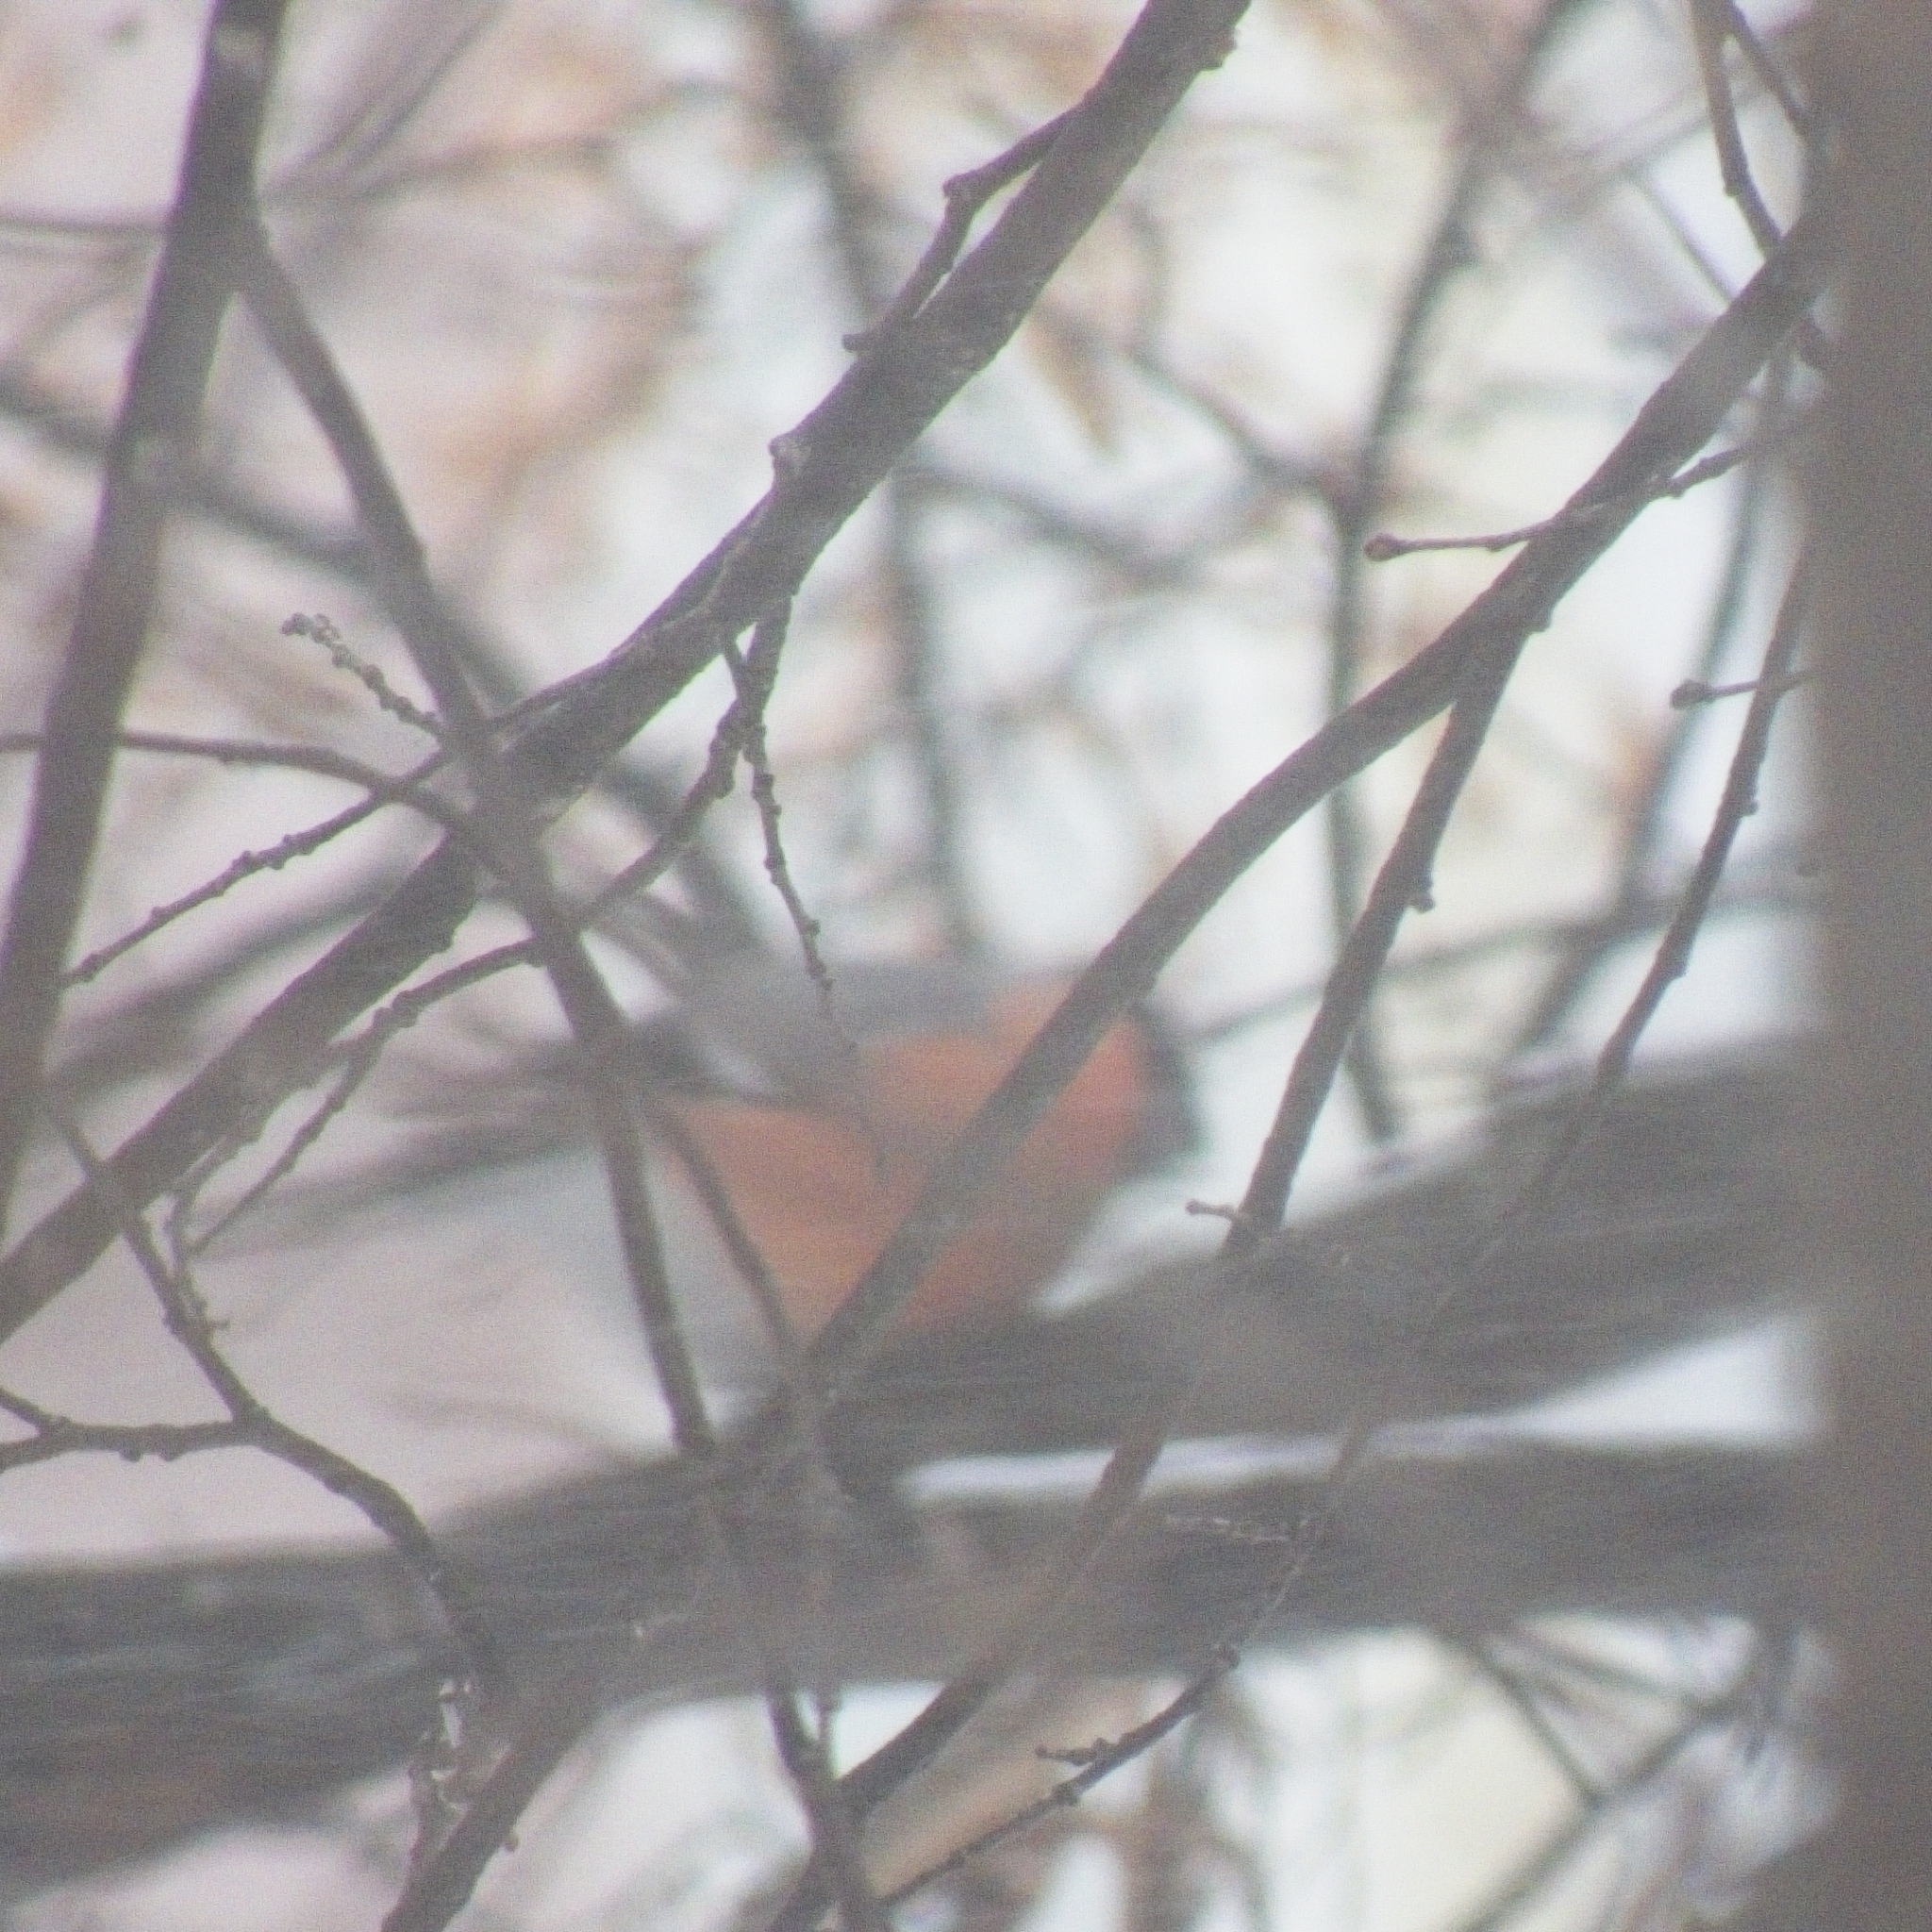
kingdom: Animalia
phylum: Chordata
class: Aves
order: Passeriformes
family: Fringillidae
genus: Pyrrhula
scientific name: Pyrrhula pyrrhula
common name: Eurasian bullfinch
